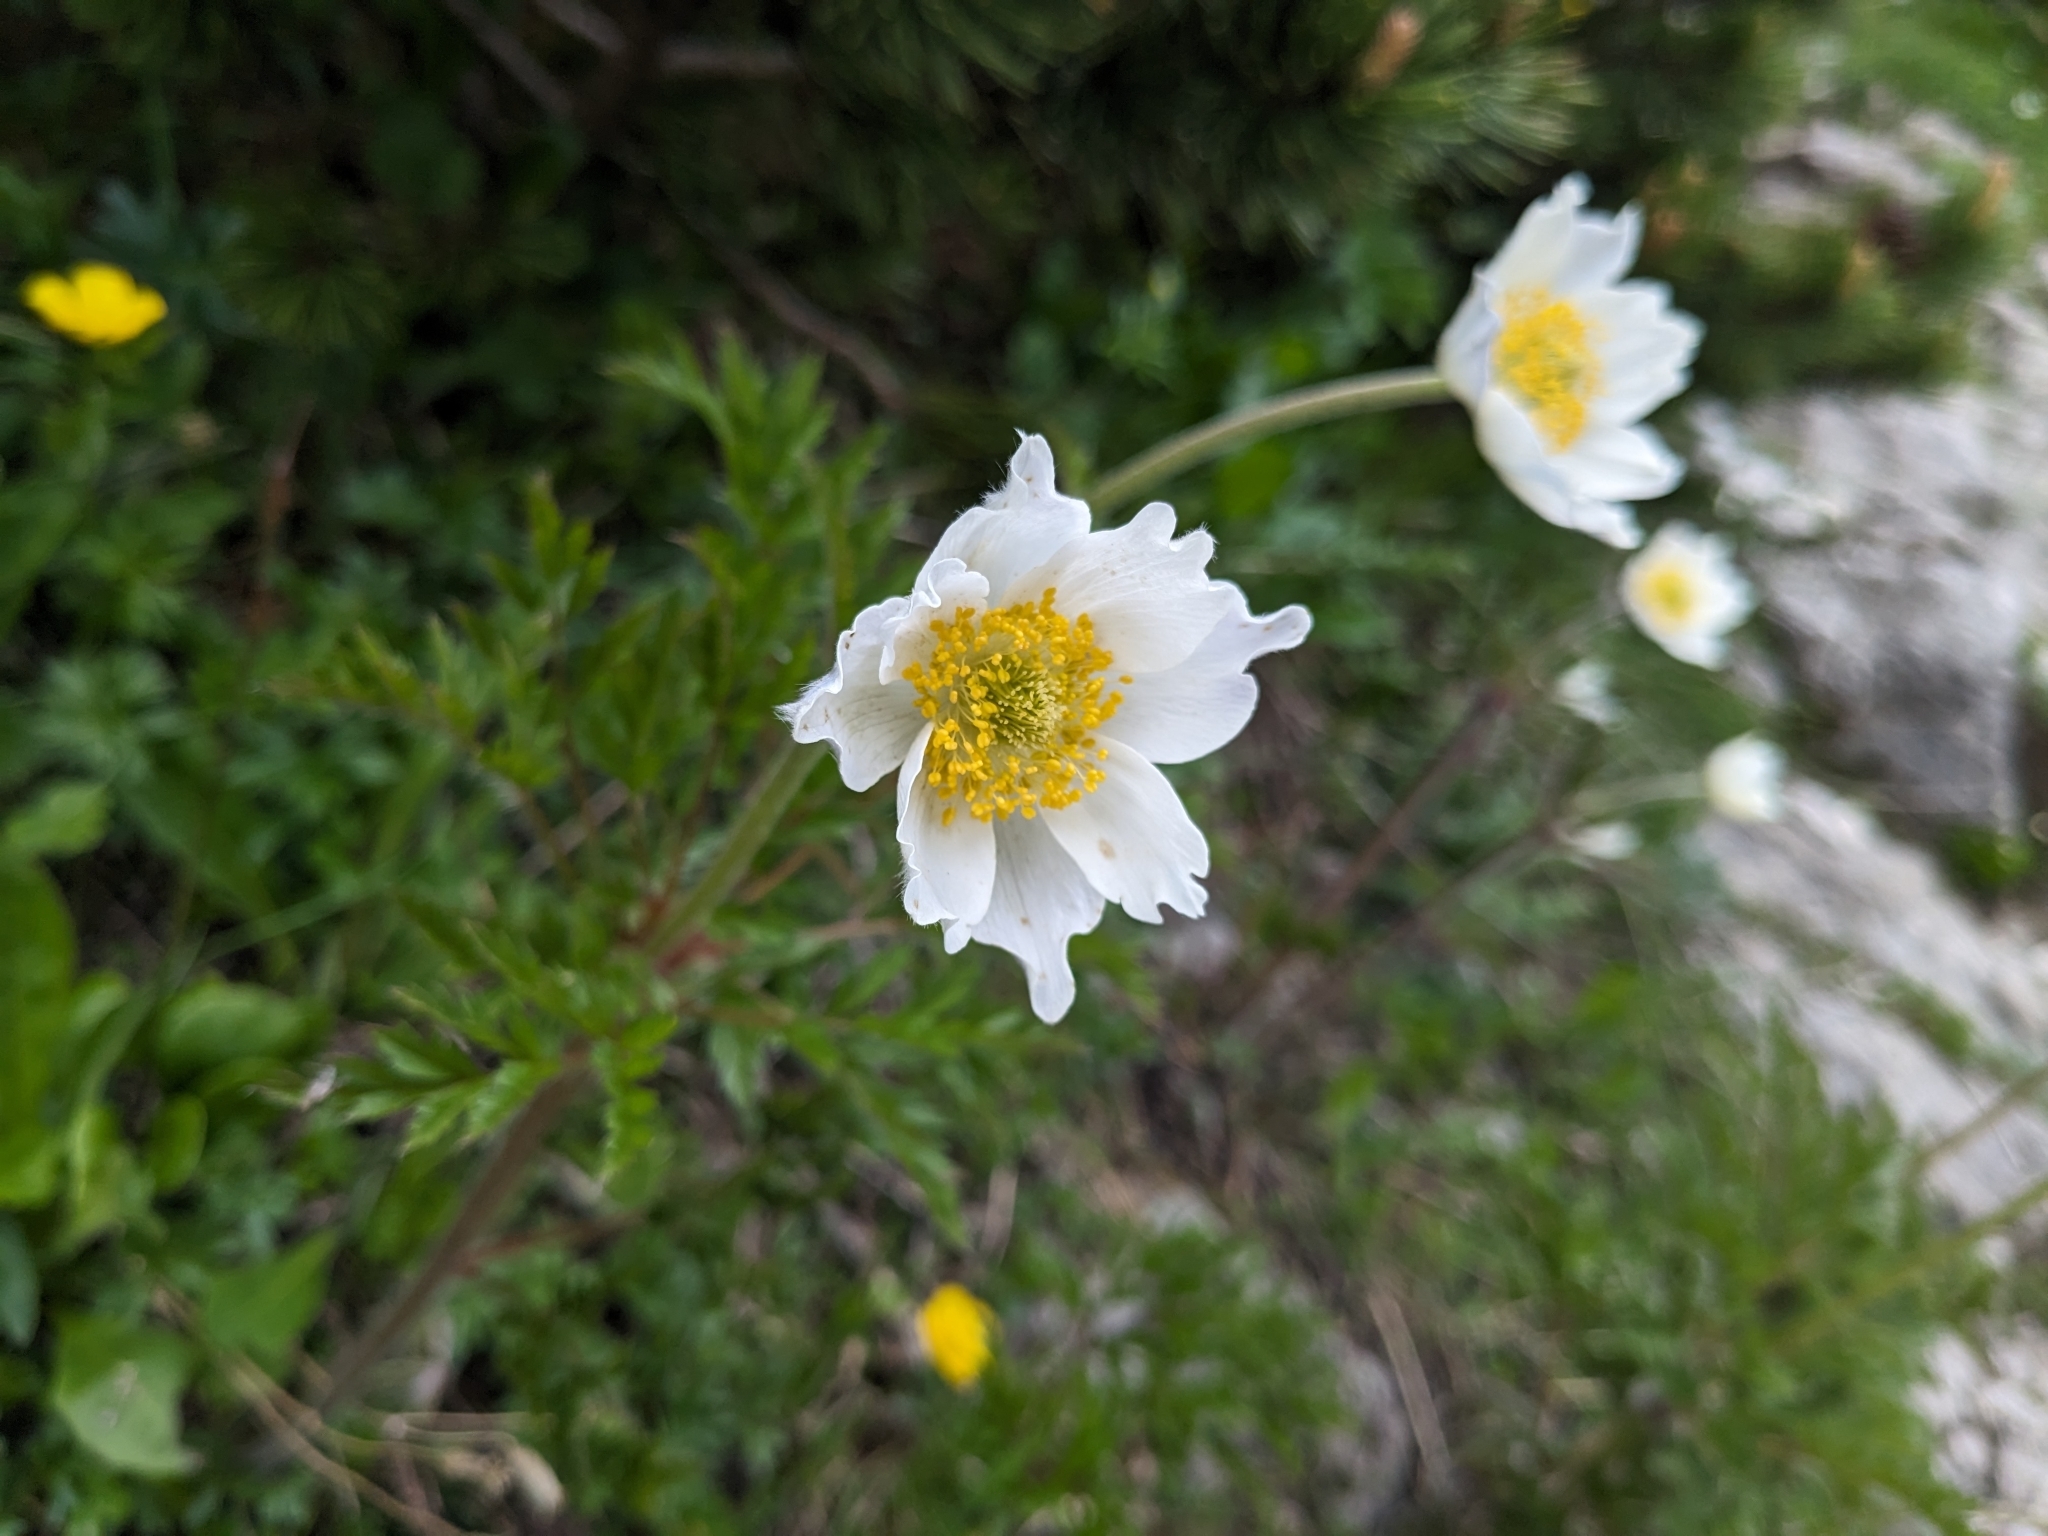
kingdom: Plantae
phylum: Tracheophyta
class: Magnoliopsida
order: Ranunculales
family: Ranunculaceae
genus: Pulsatilla
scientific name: Pulsatilla alpina
